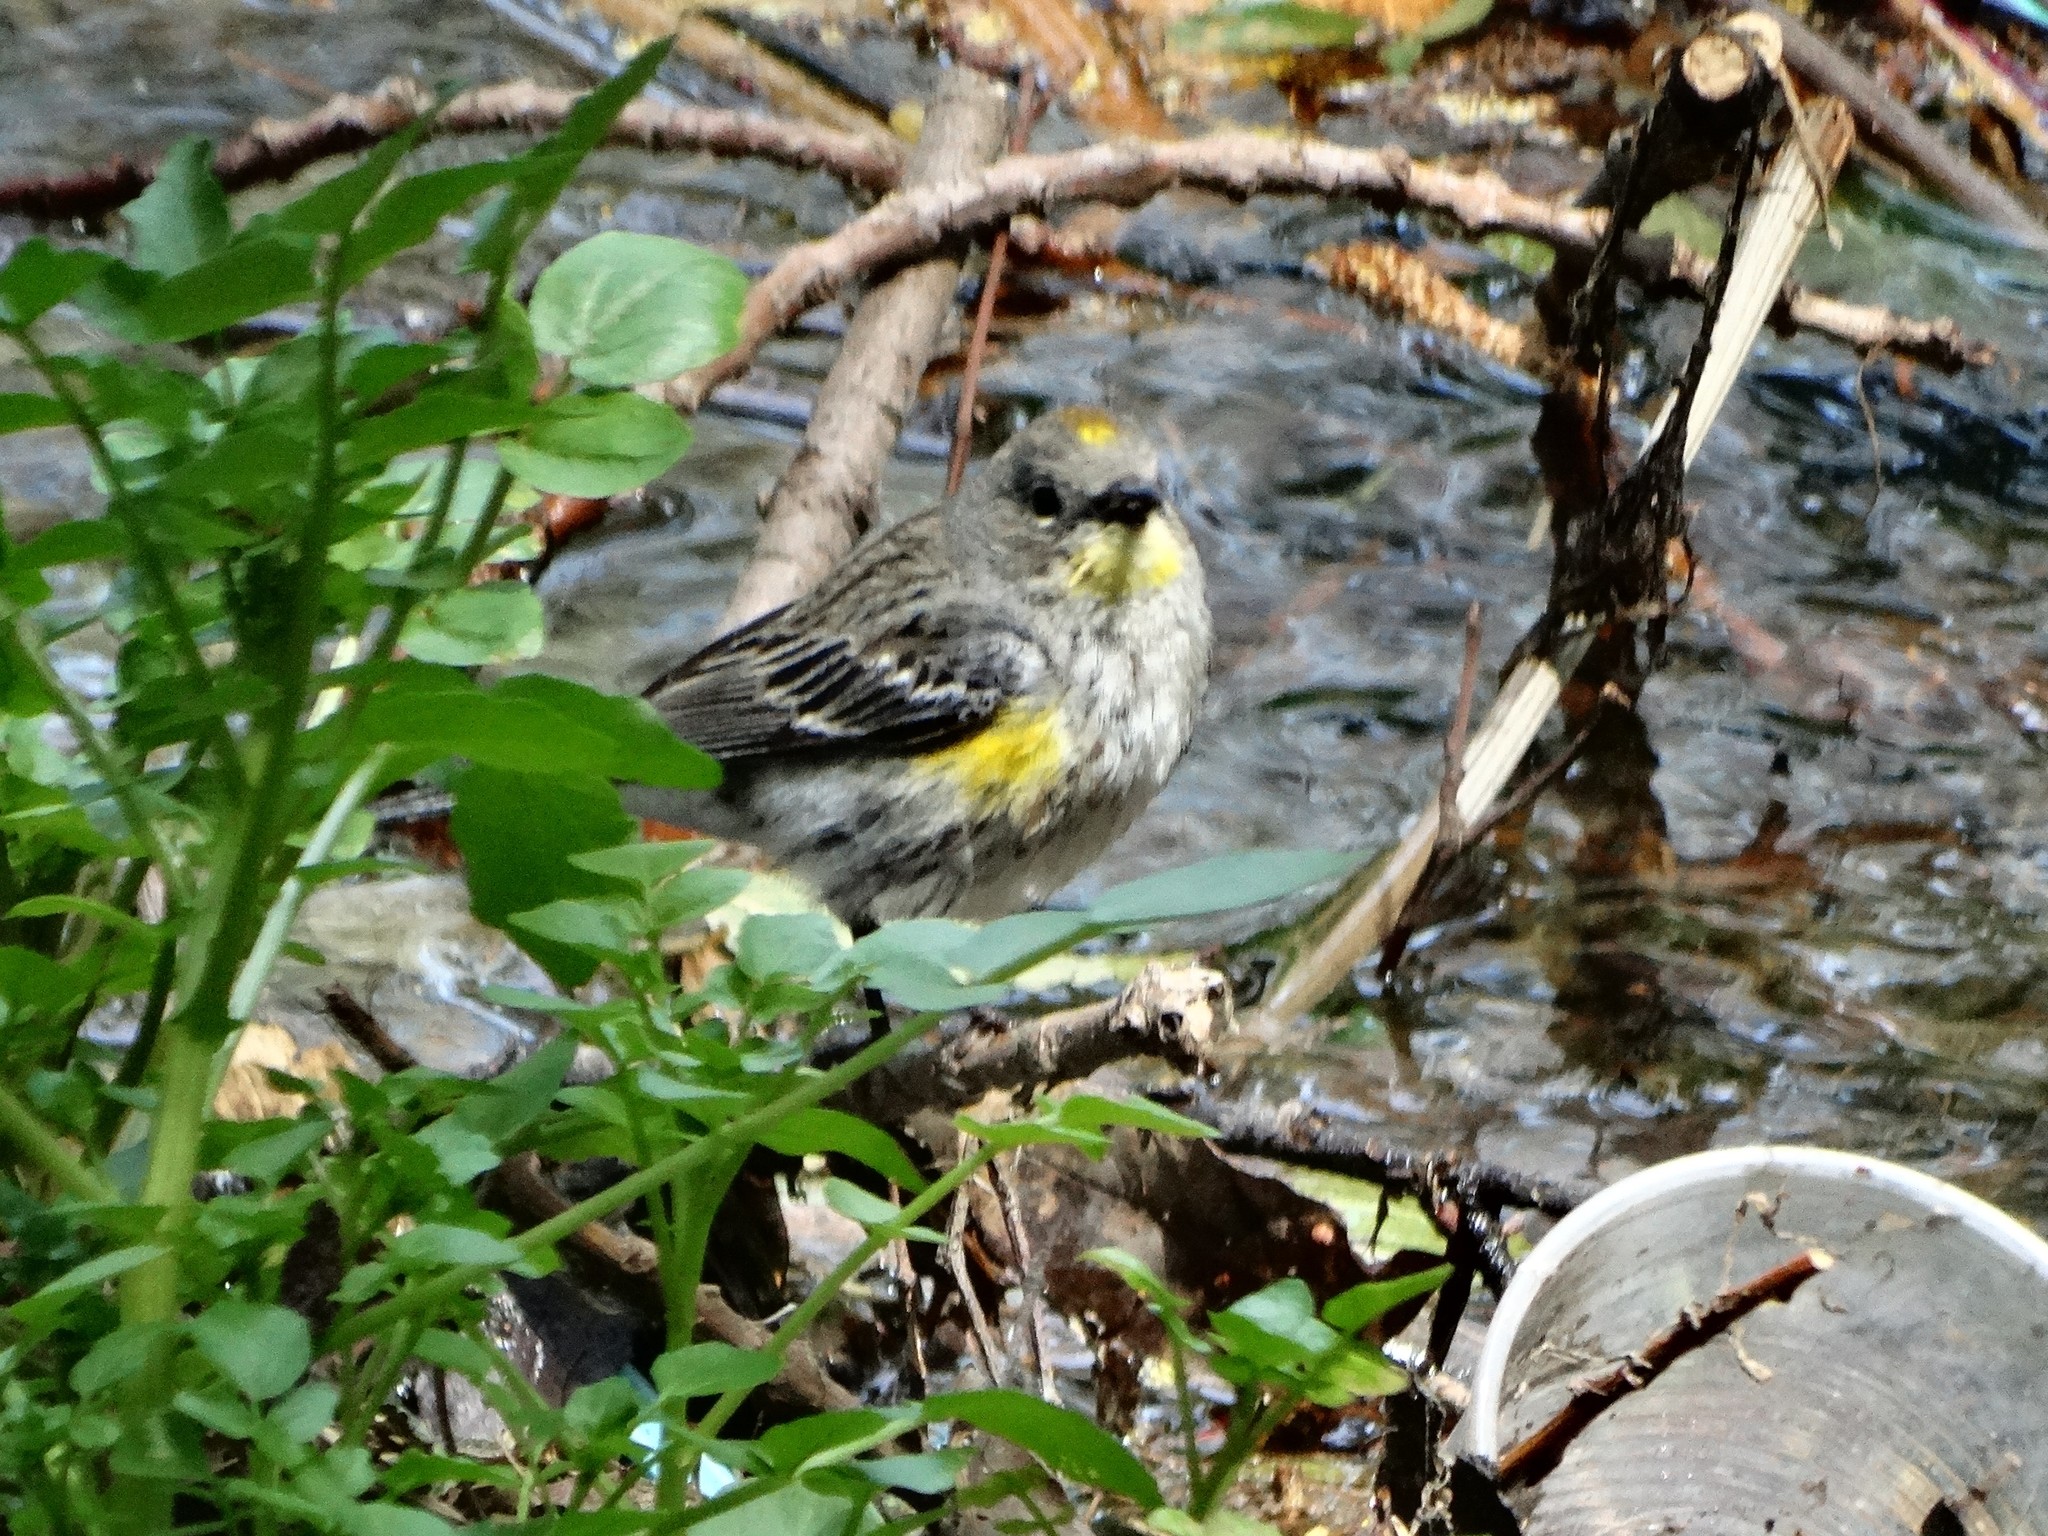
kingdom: Animalia
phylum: Chordata
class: Aves
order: Passeriformes
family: Parulidae
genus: Setophaga
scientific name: Setophaga coronata
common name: Myrtle warbler
